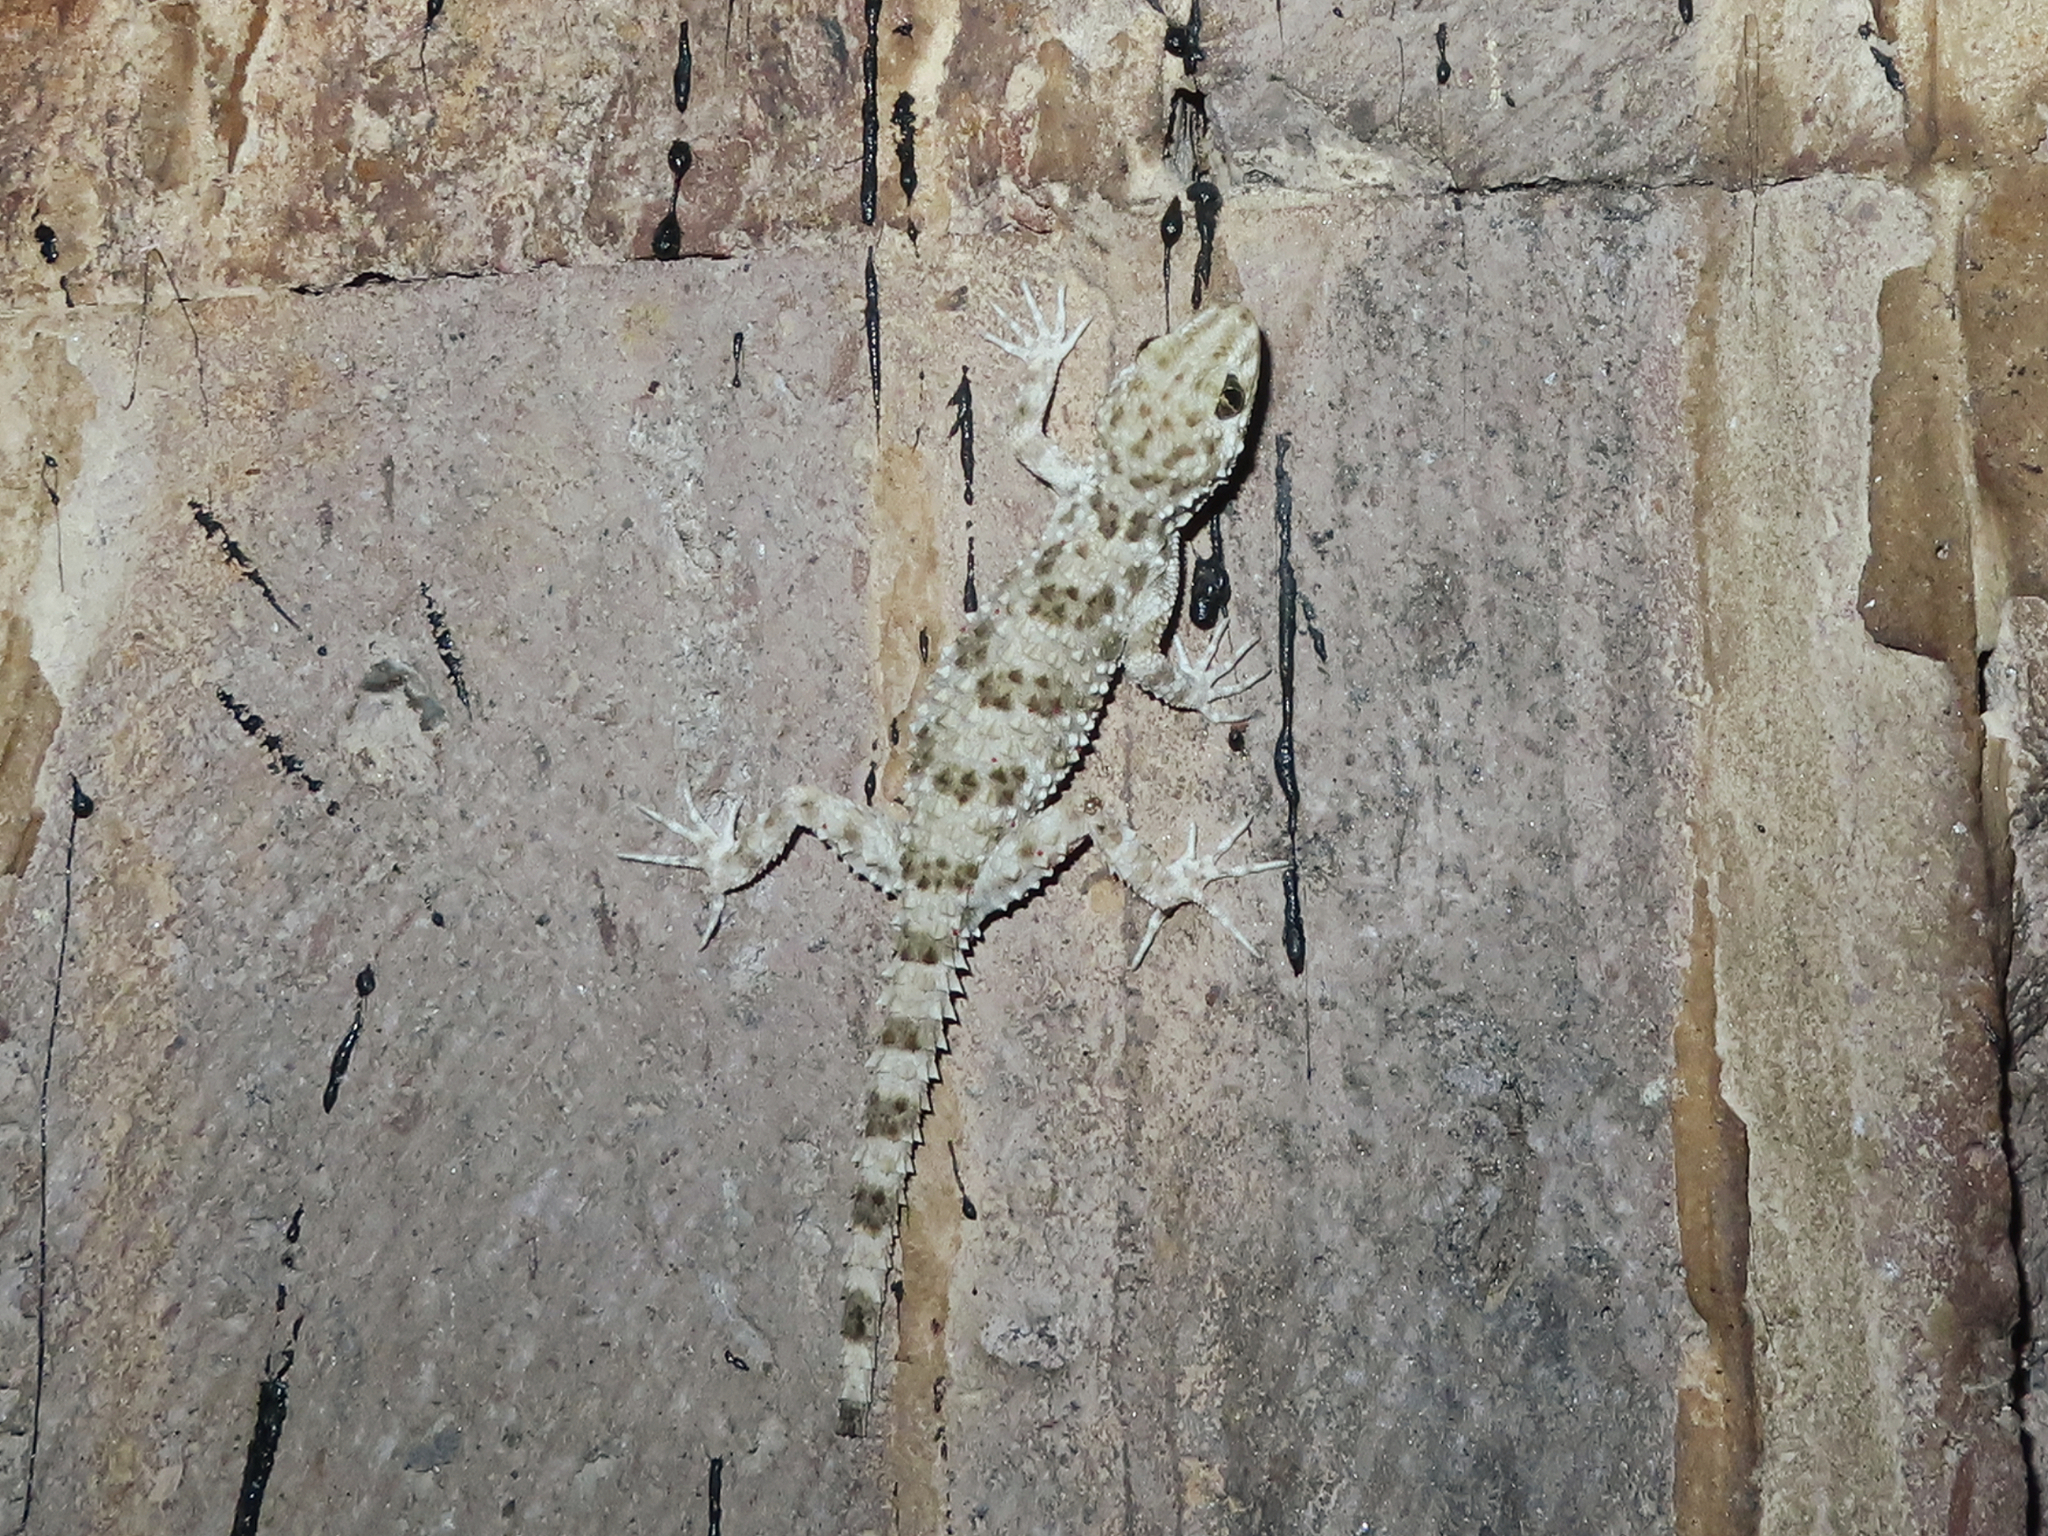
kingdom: Animalia
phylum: Chordata
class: Squamata
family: Gekkonidae
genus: Tenuidactylus
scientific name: Tenuidactylus caspius
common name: Caspian bent-toed gecko
